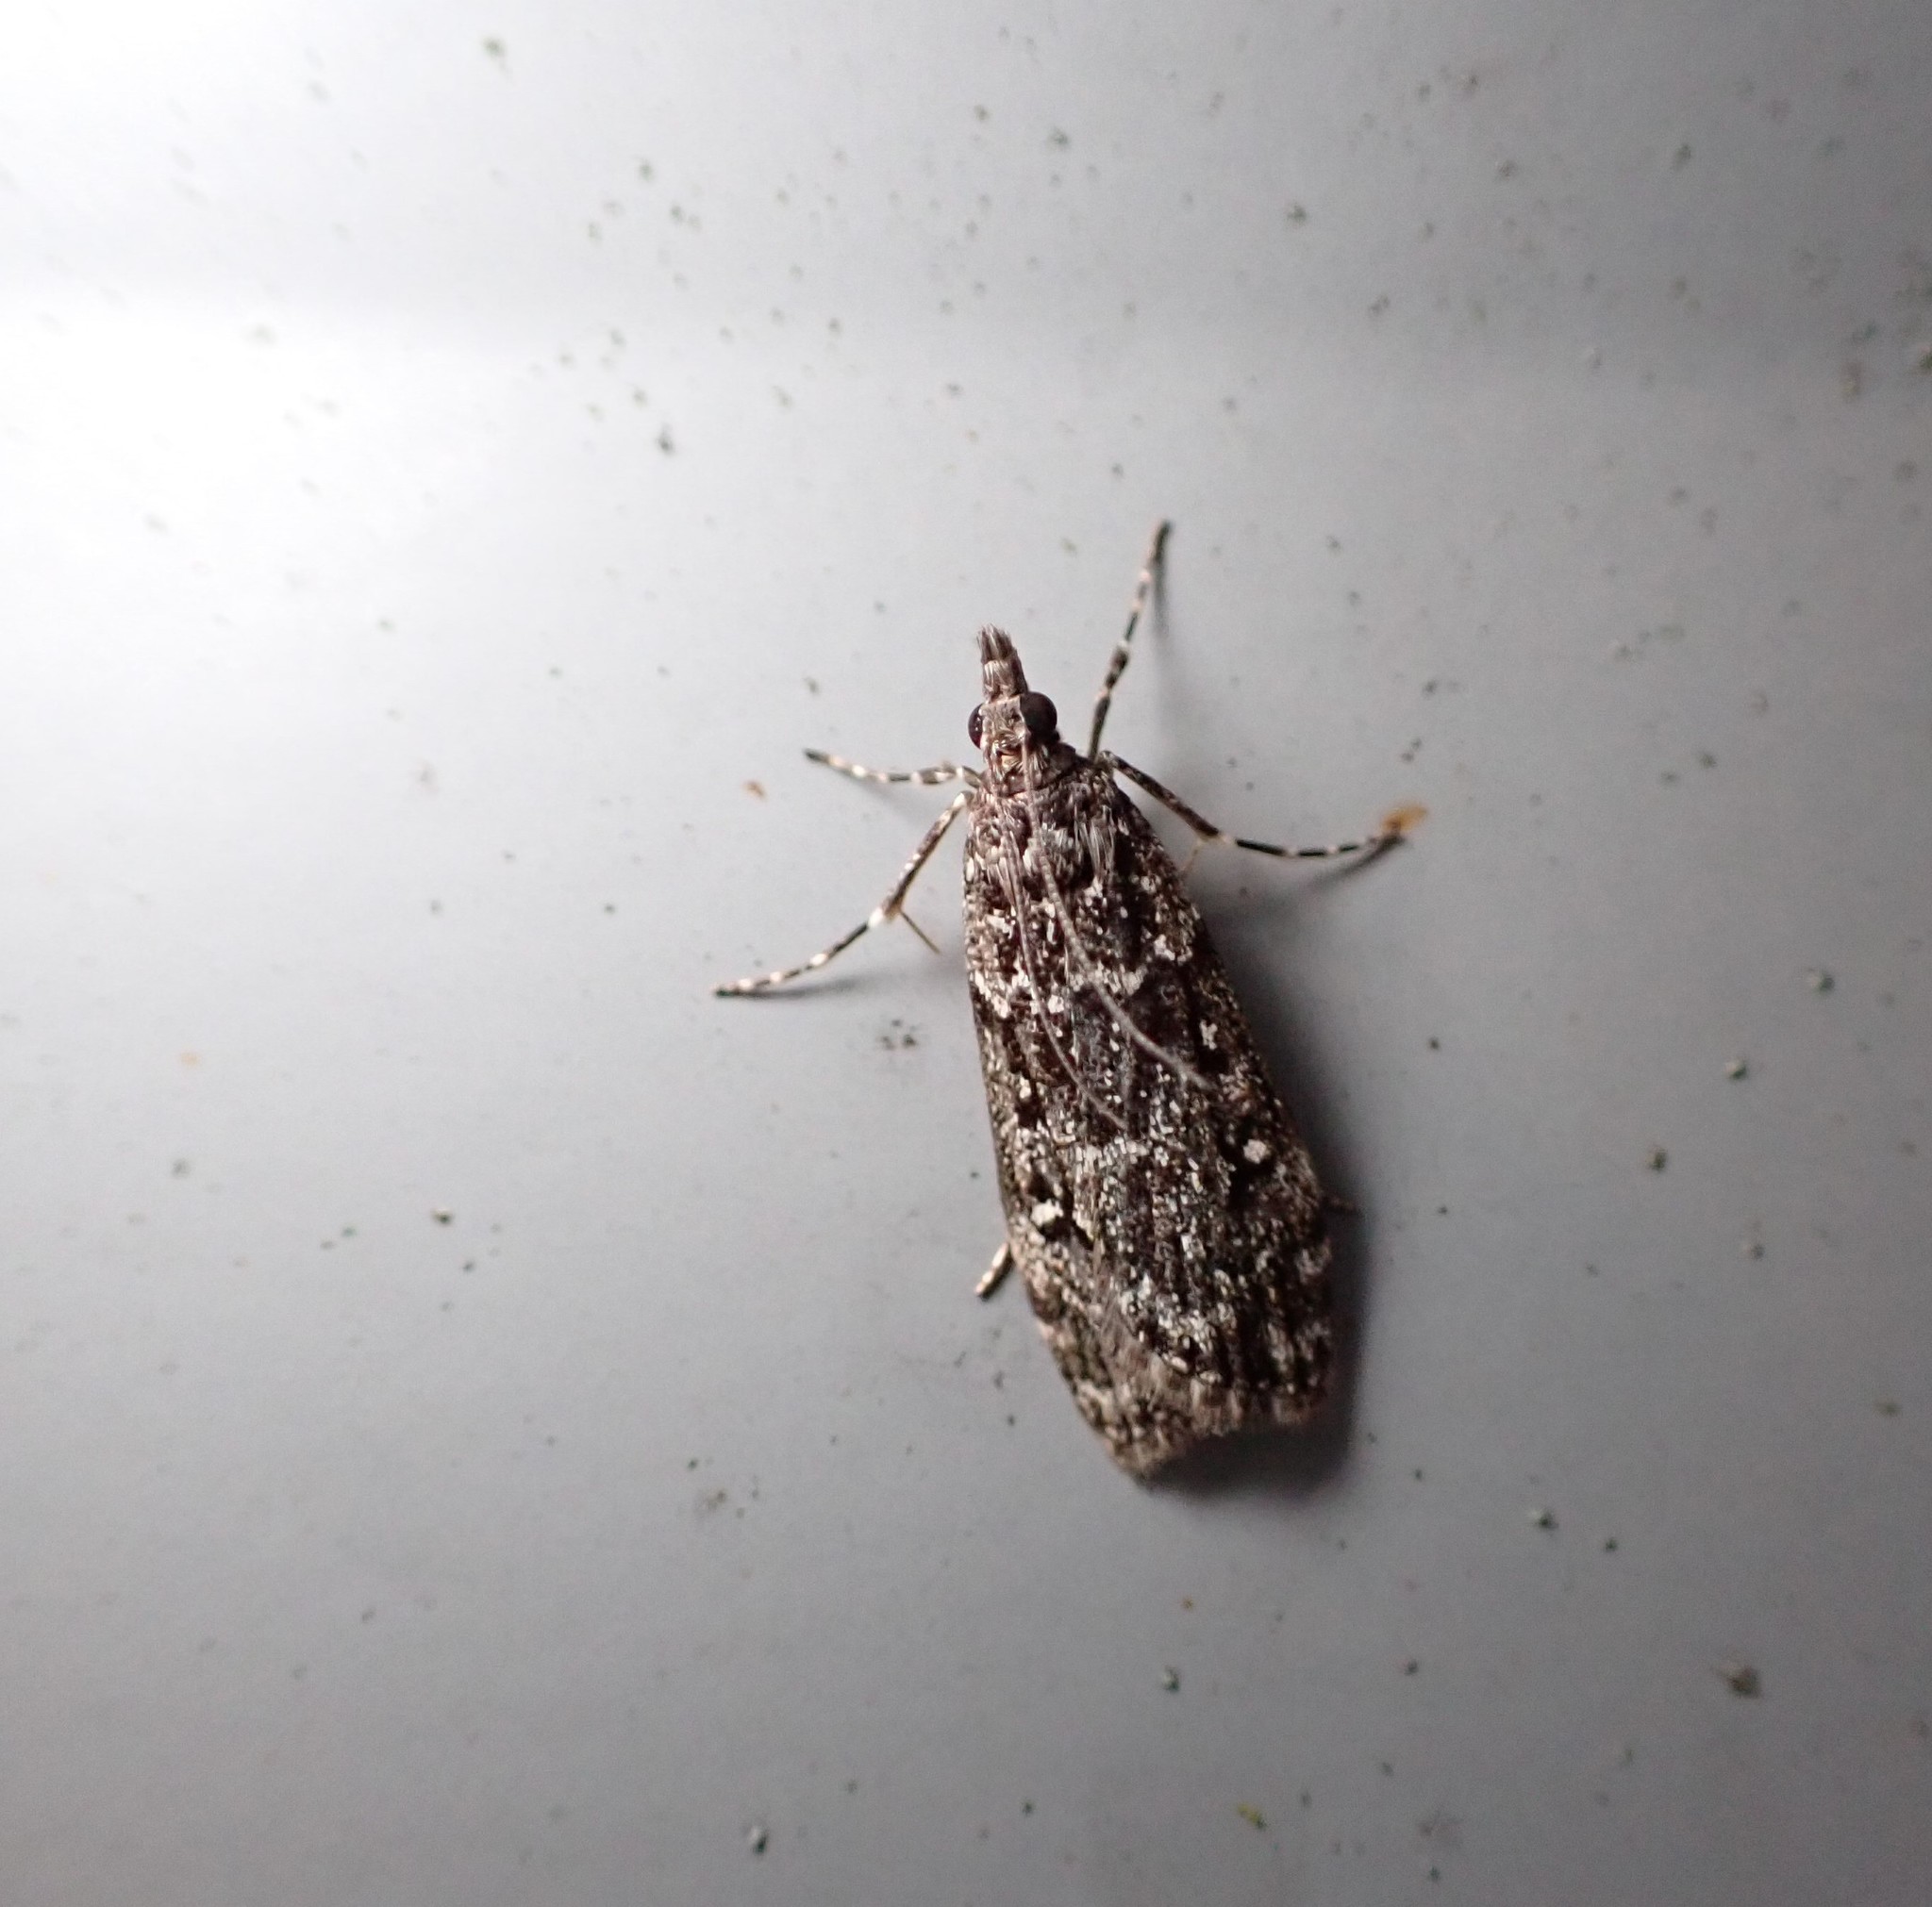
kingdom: Animalia
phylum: Arthropoda
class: Insecta
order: Lepidoptera
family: Crambidae
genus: Eudonia
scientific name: Eudonia philerga
